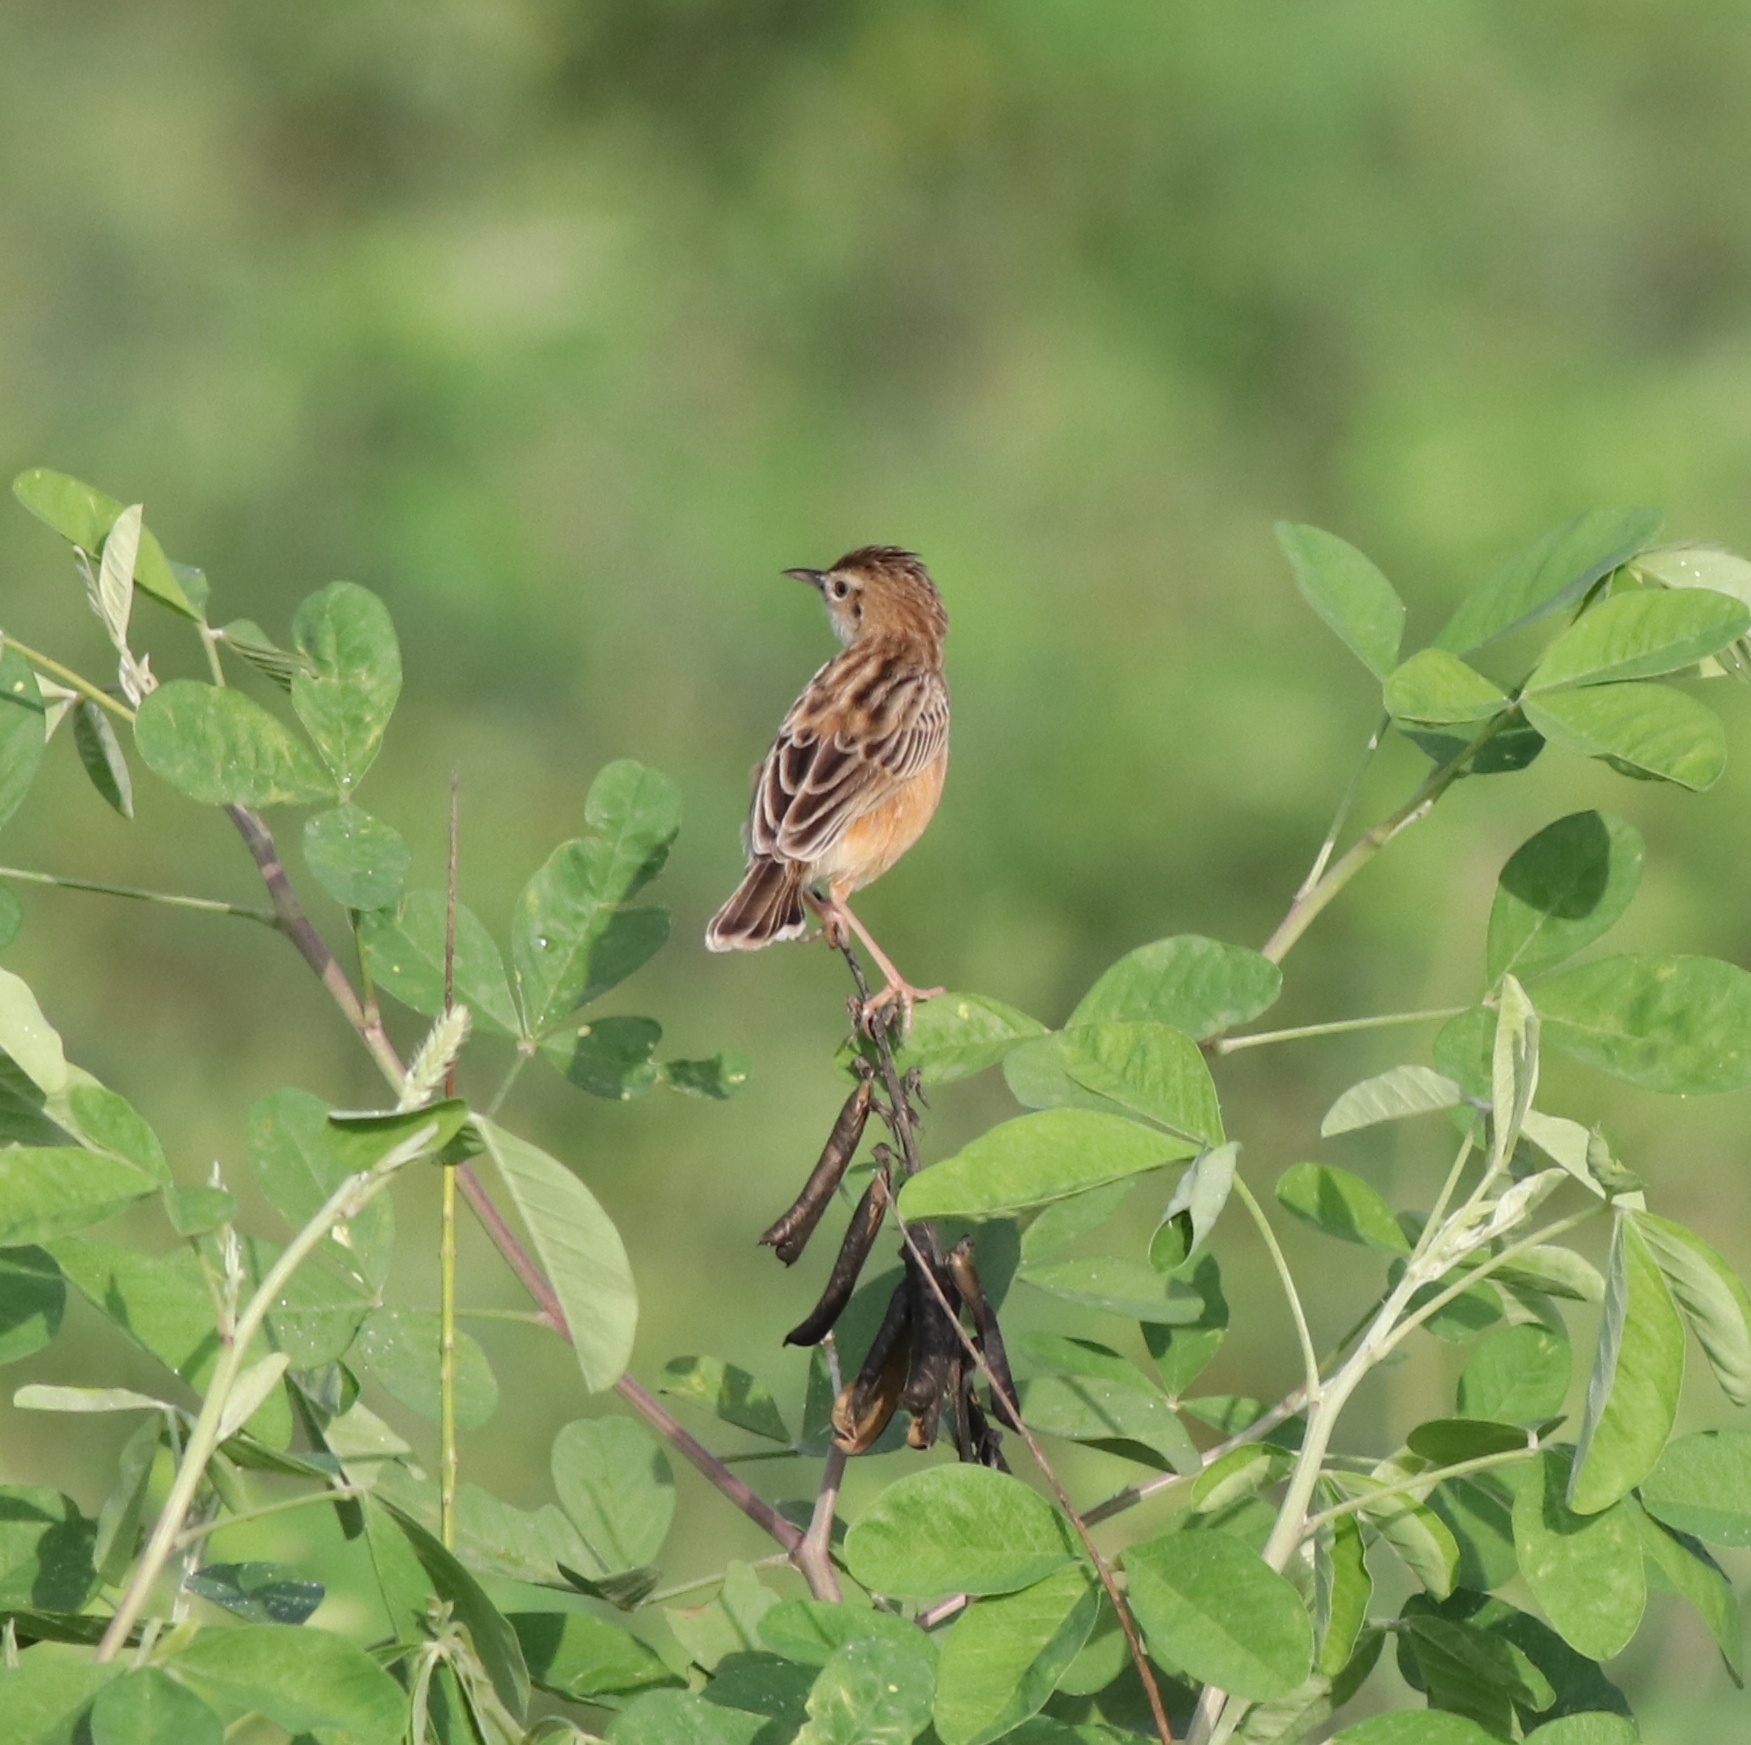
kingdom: Animalia
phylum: Chordata
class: Aves
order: Passeriformes
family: Cisticolidae
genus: Cisticola
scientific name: Cisticola juncidis
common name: Zitting cisticola
